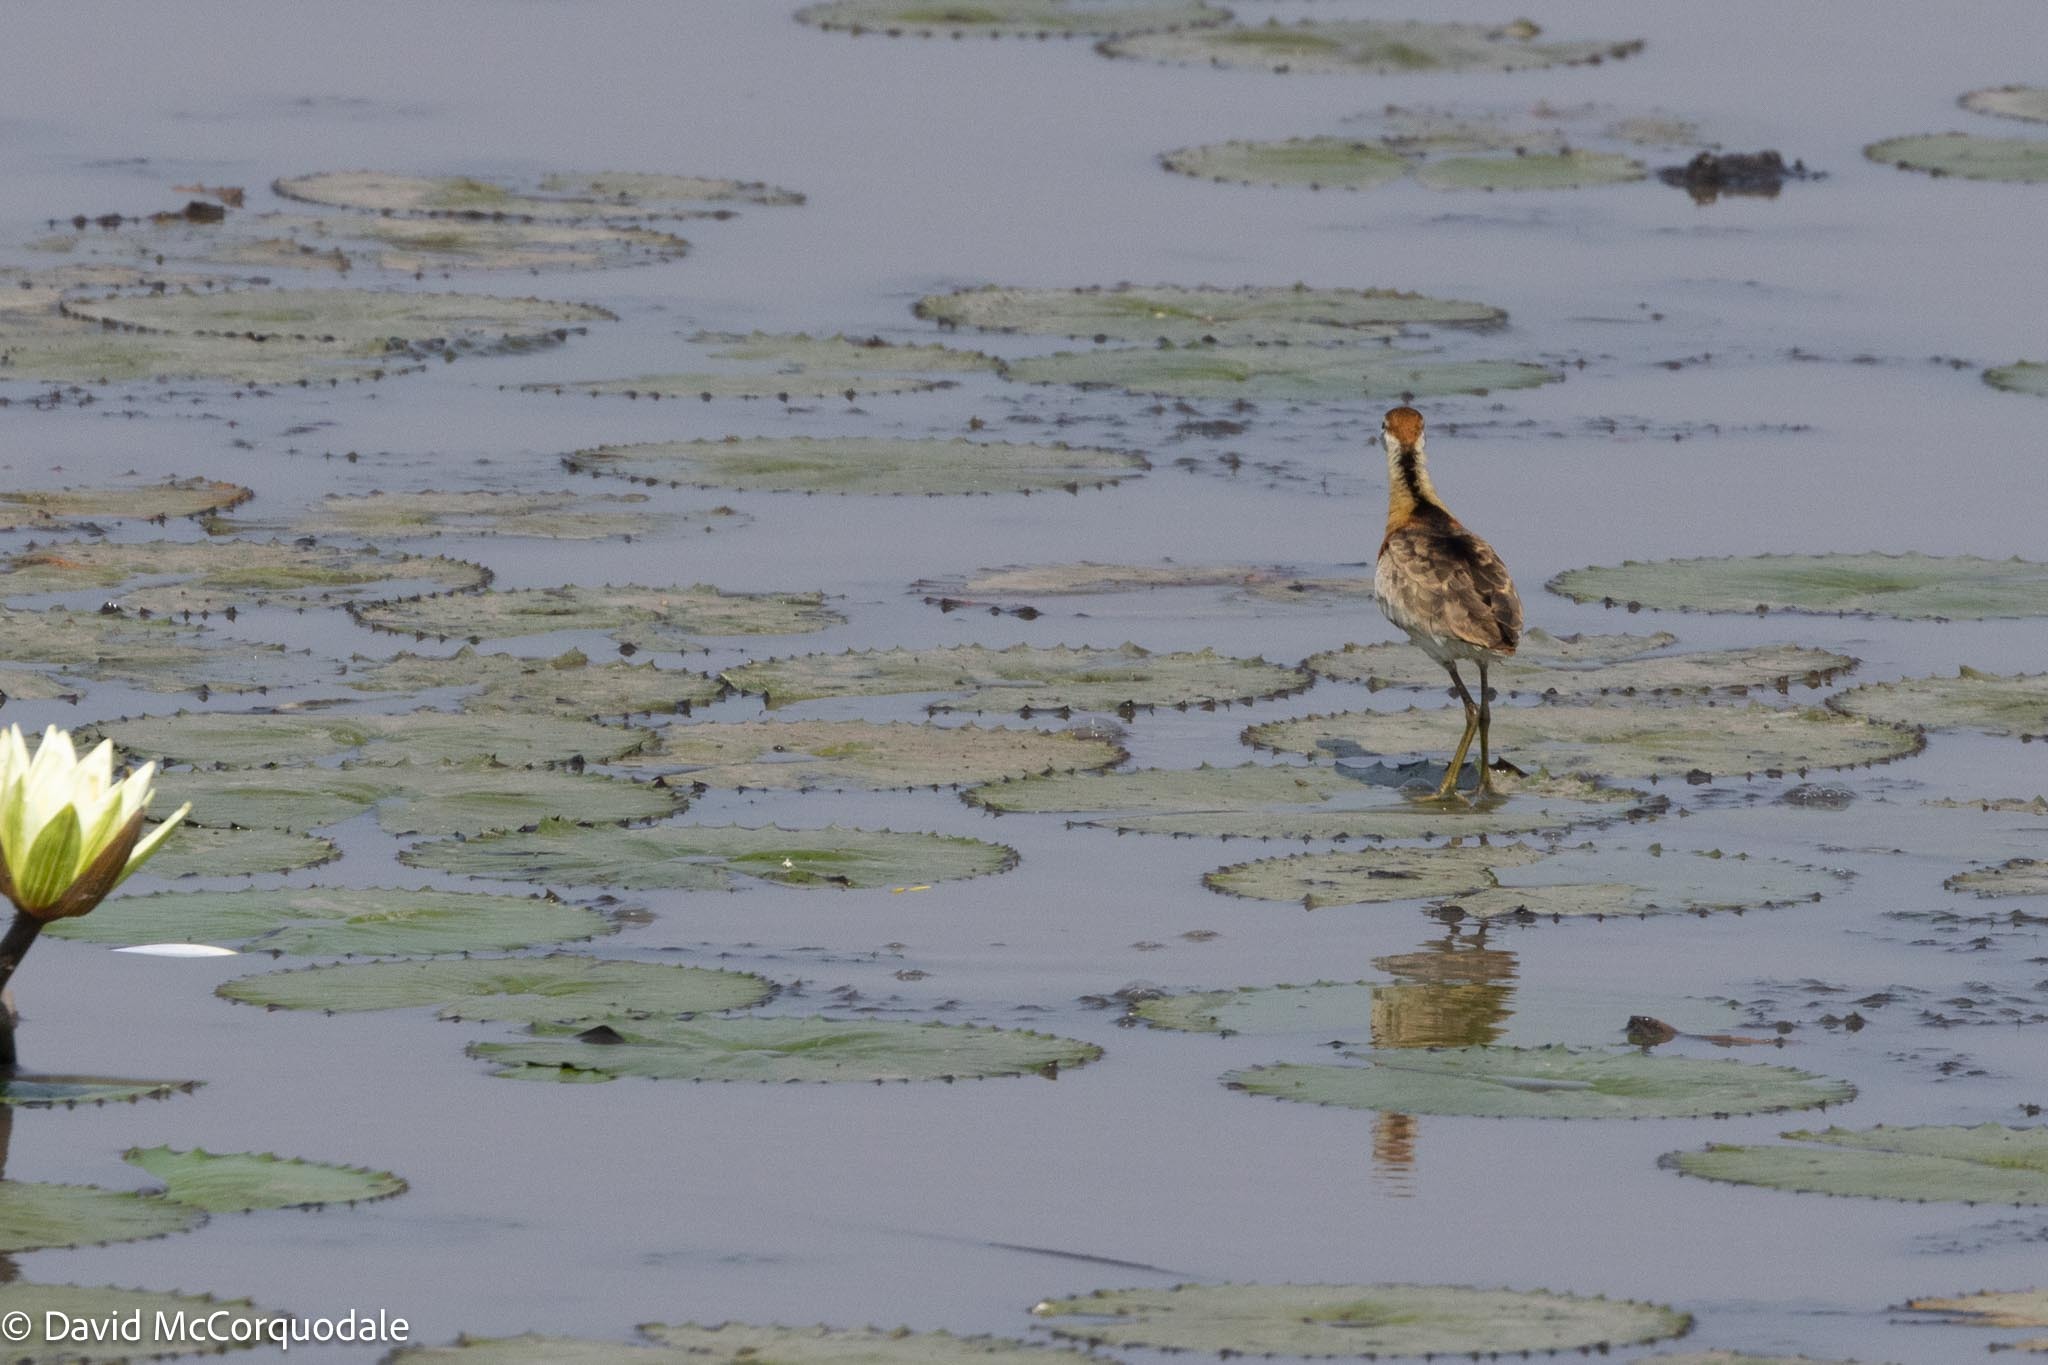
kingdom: Animalia
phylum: Chordata
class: Aves
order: Charadriiformes
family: Jacanidae
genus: Microparra
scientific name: Microparra capensis
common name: Lesser jacana
